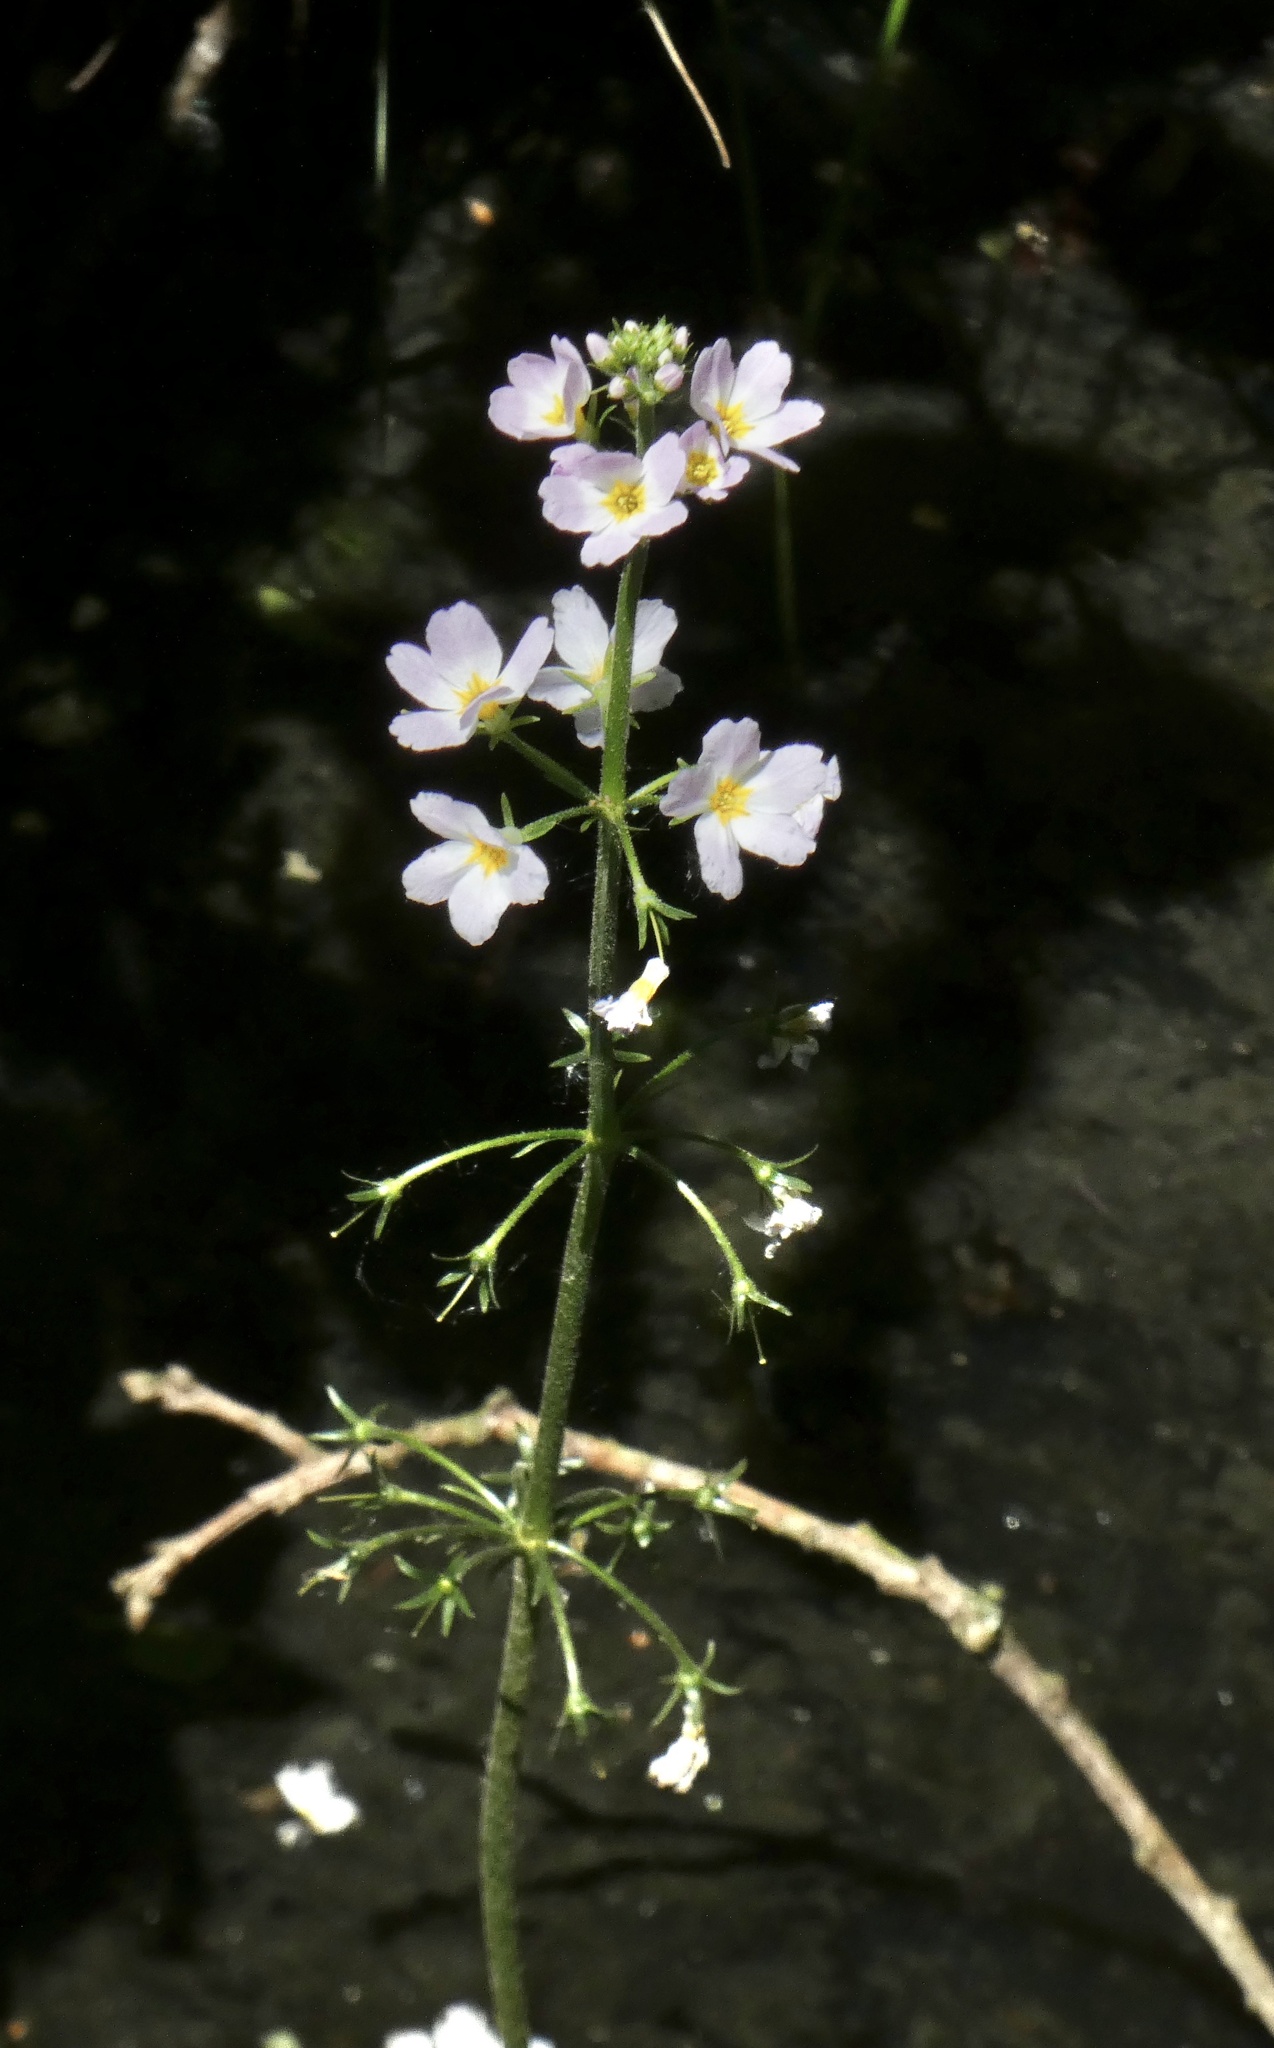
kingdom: Plantae
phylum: Tracheophyta
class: Magnoliopsida
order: Ericales
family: Primulaceae
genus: Hottonia
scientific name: Hottonia palustris
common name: Water-violet
